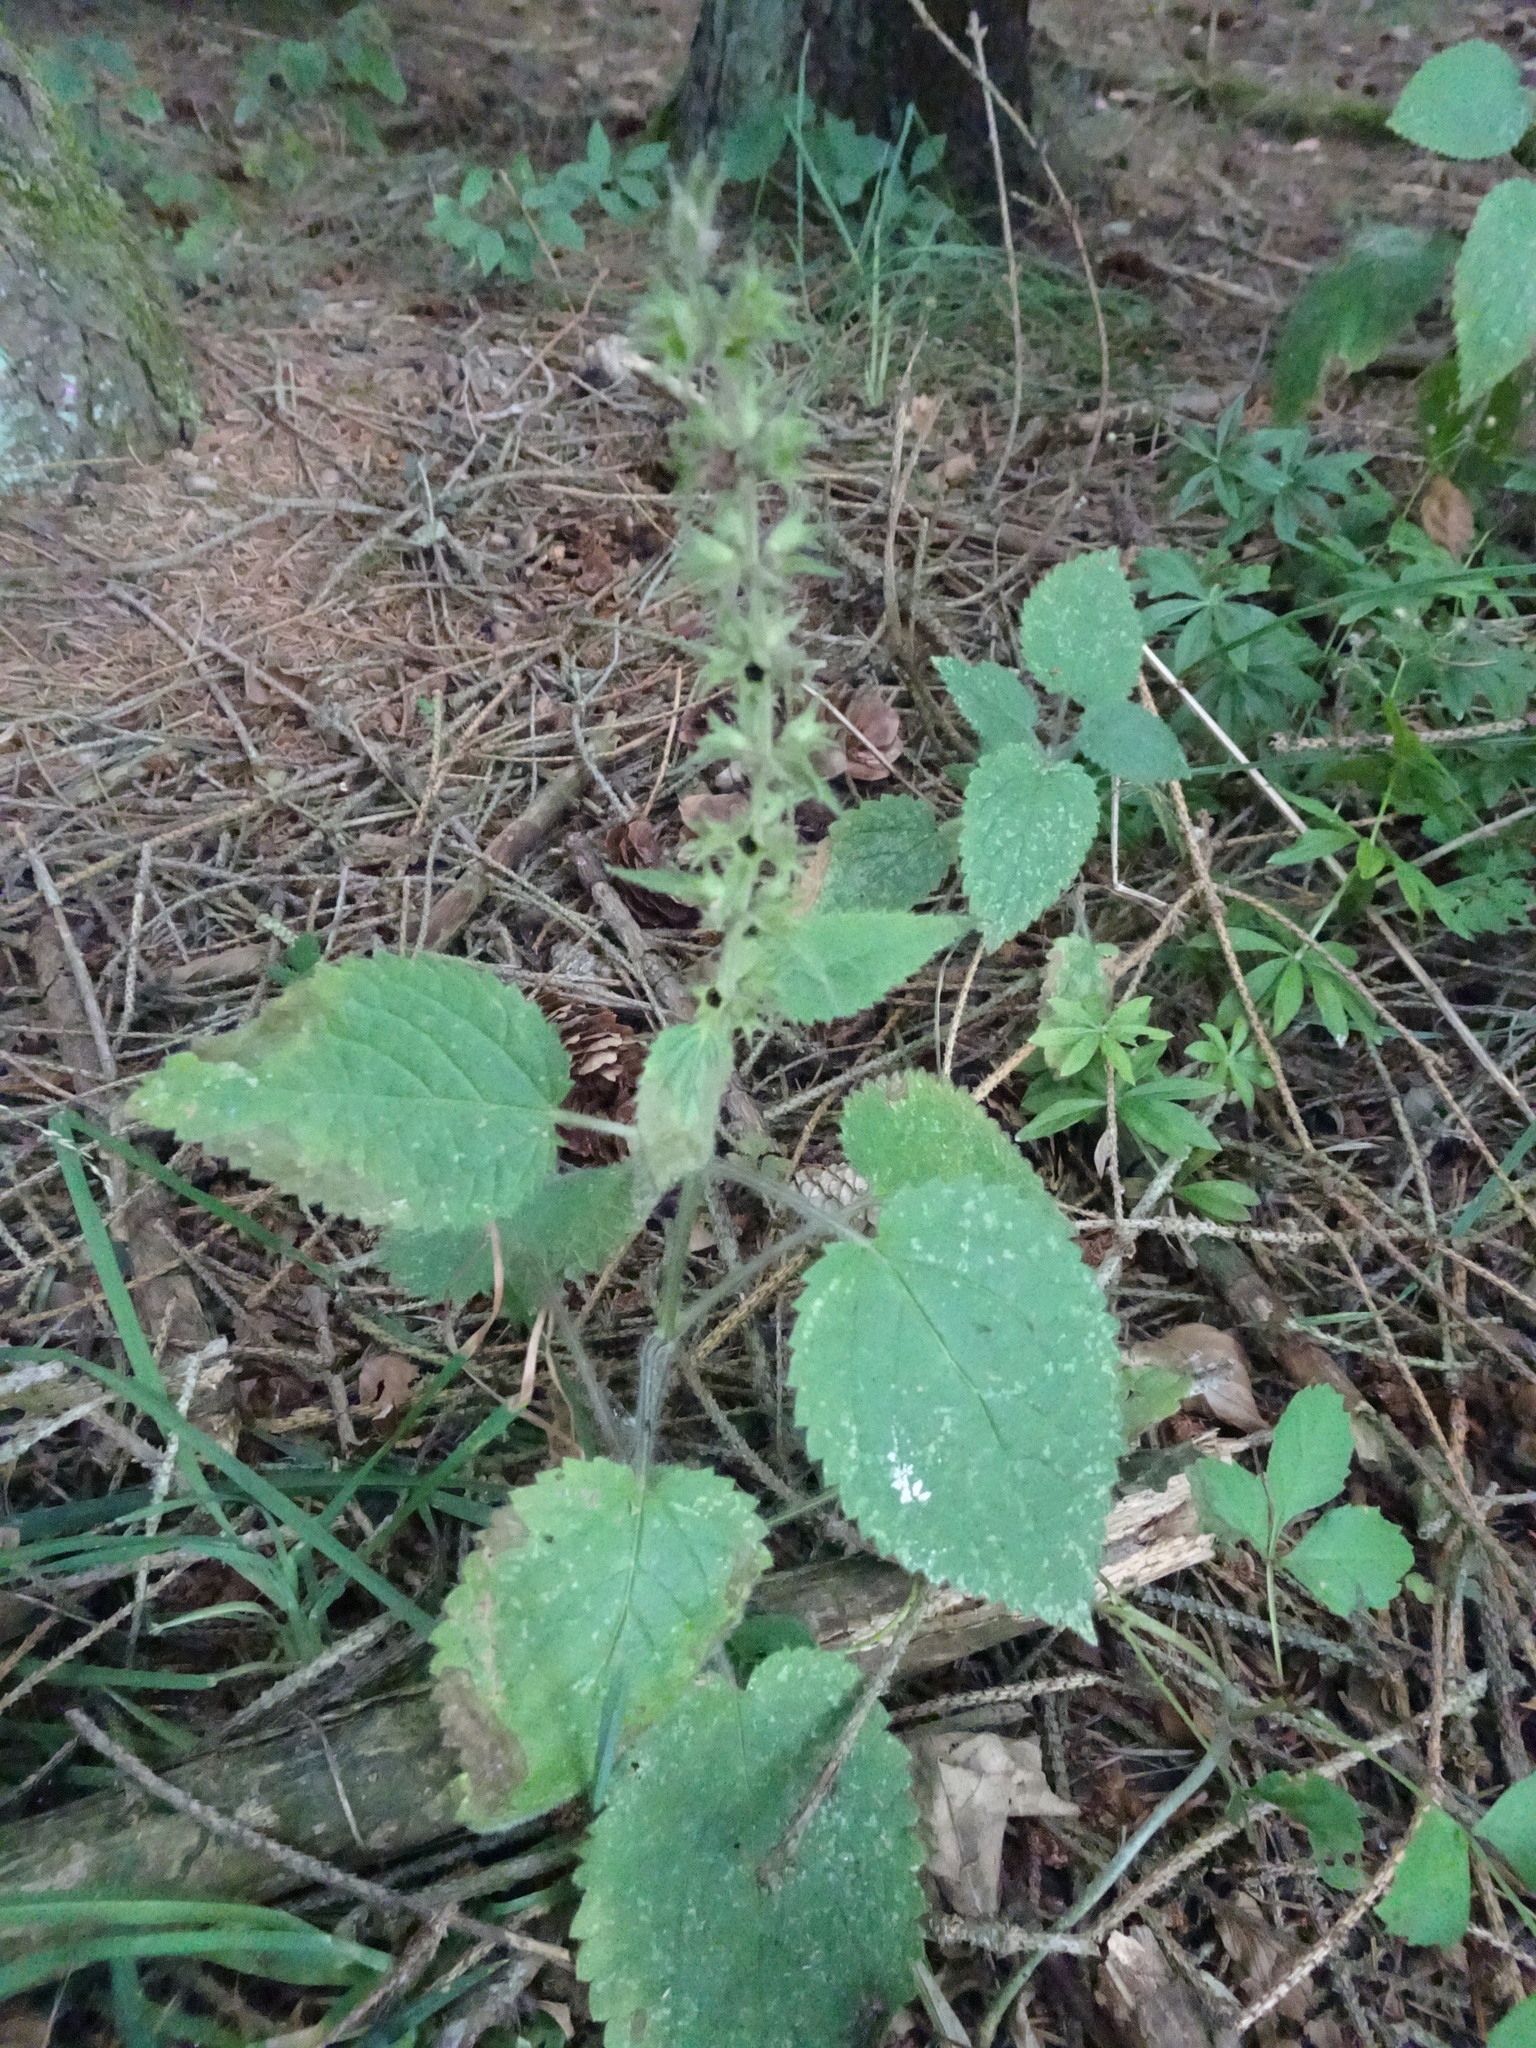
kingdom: Plantae
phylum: Tracheophyta
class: Magnoliopsida
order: Lamiales
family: Lamiaceae
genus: Stachys
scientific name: Stachys sylvatica
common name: Hedge woundwort
